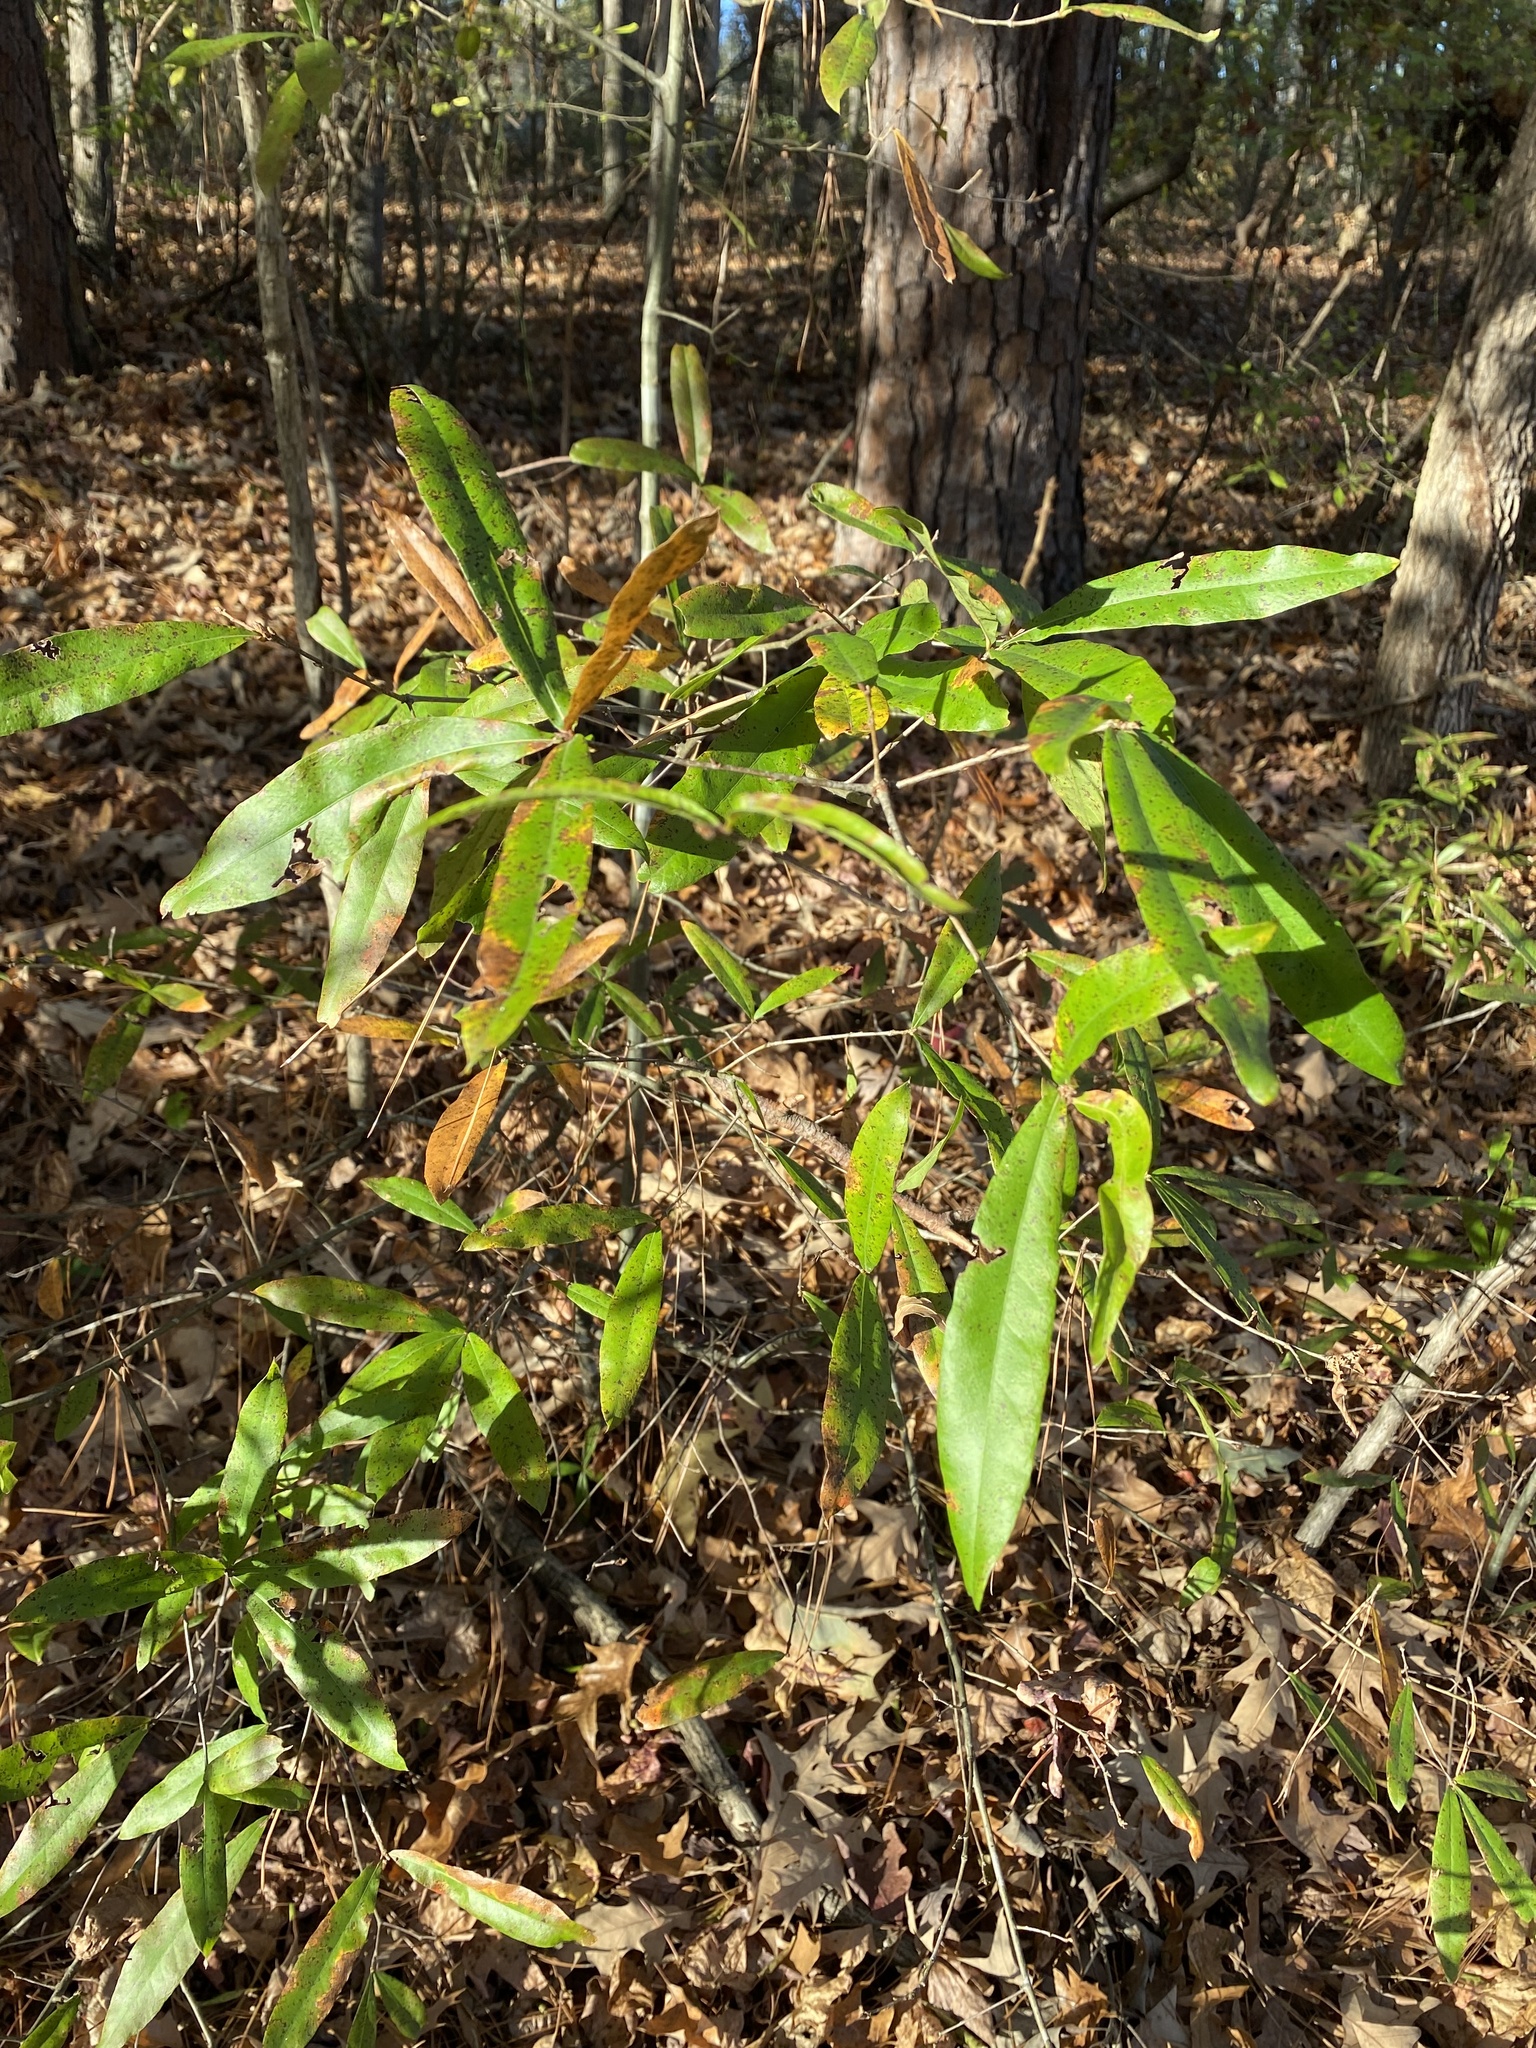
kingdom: Plantae
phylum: Tracheophyta
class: Magnoliopsida
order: Fagales
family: Fagaceae
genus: Quercus
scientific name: Quercus phellos
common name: Willow oak
